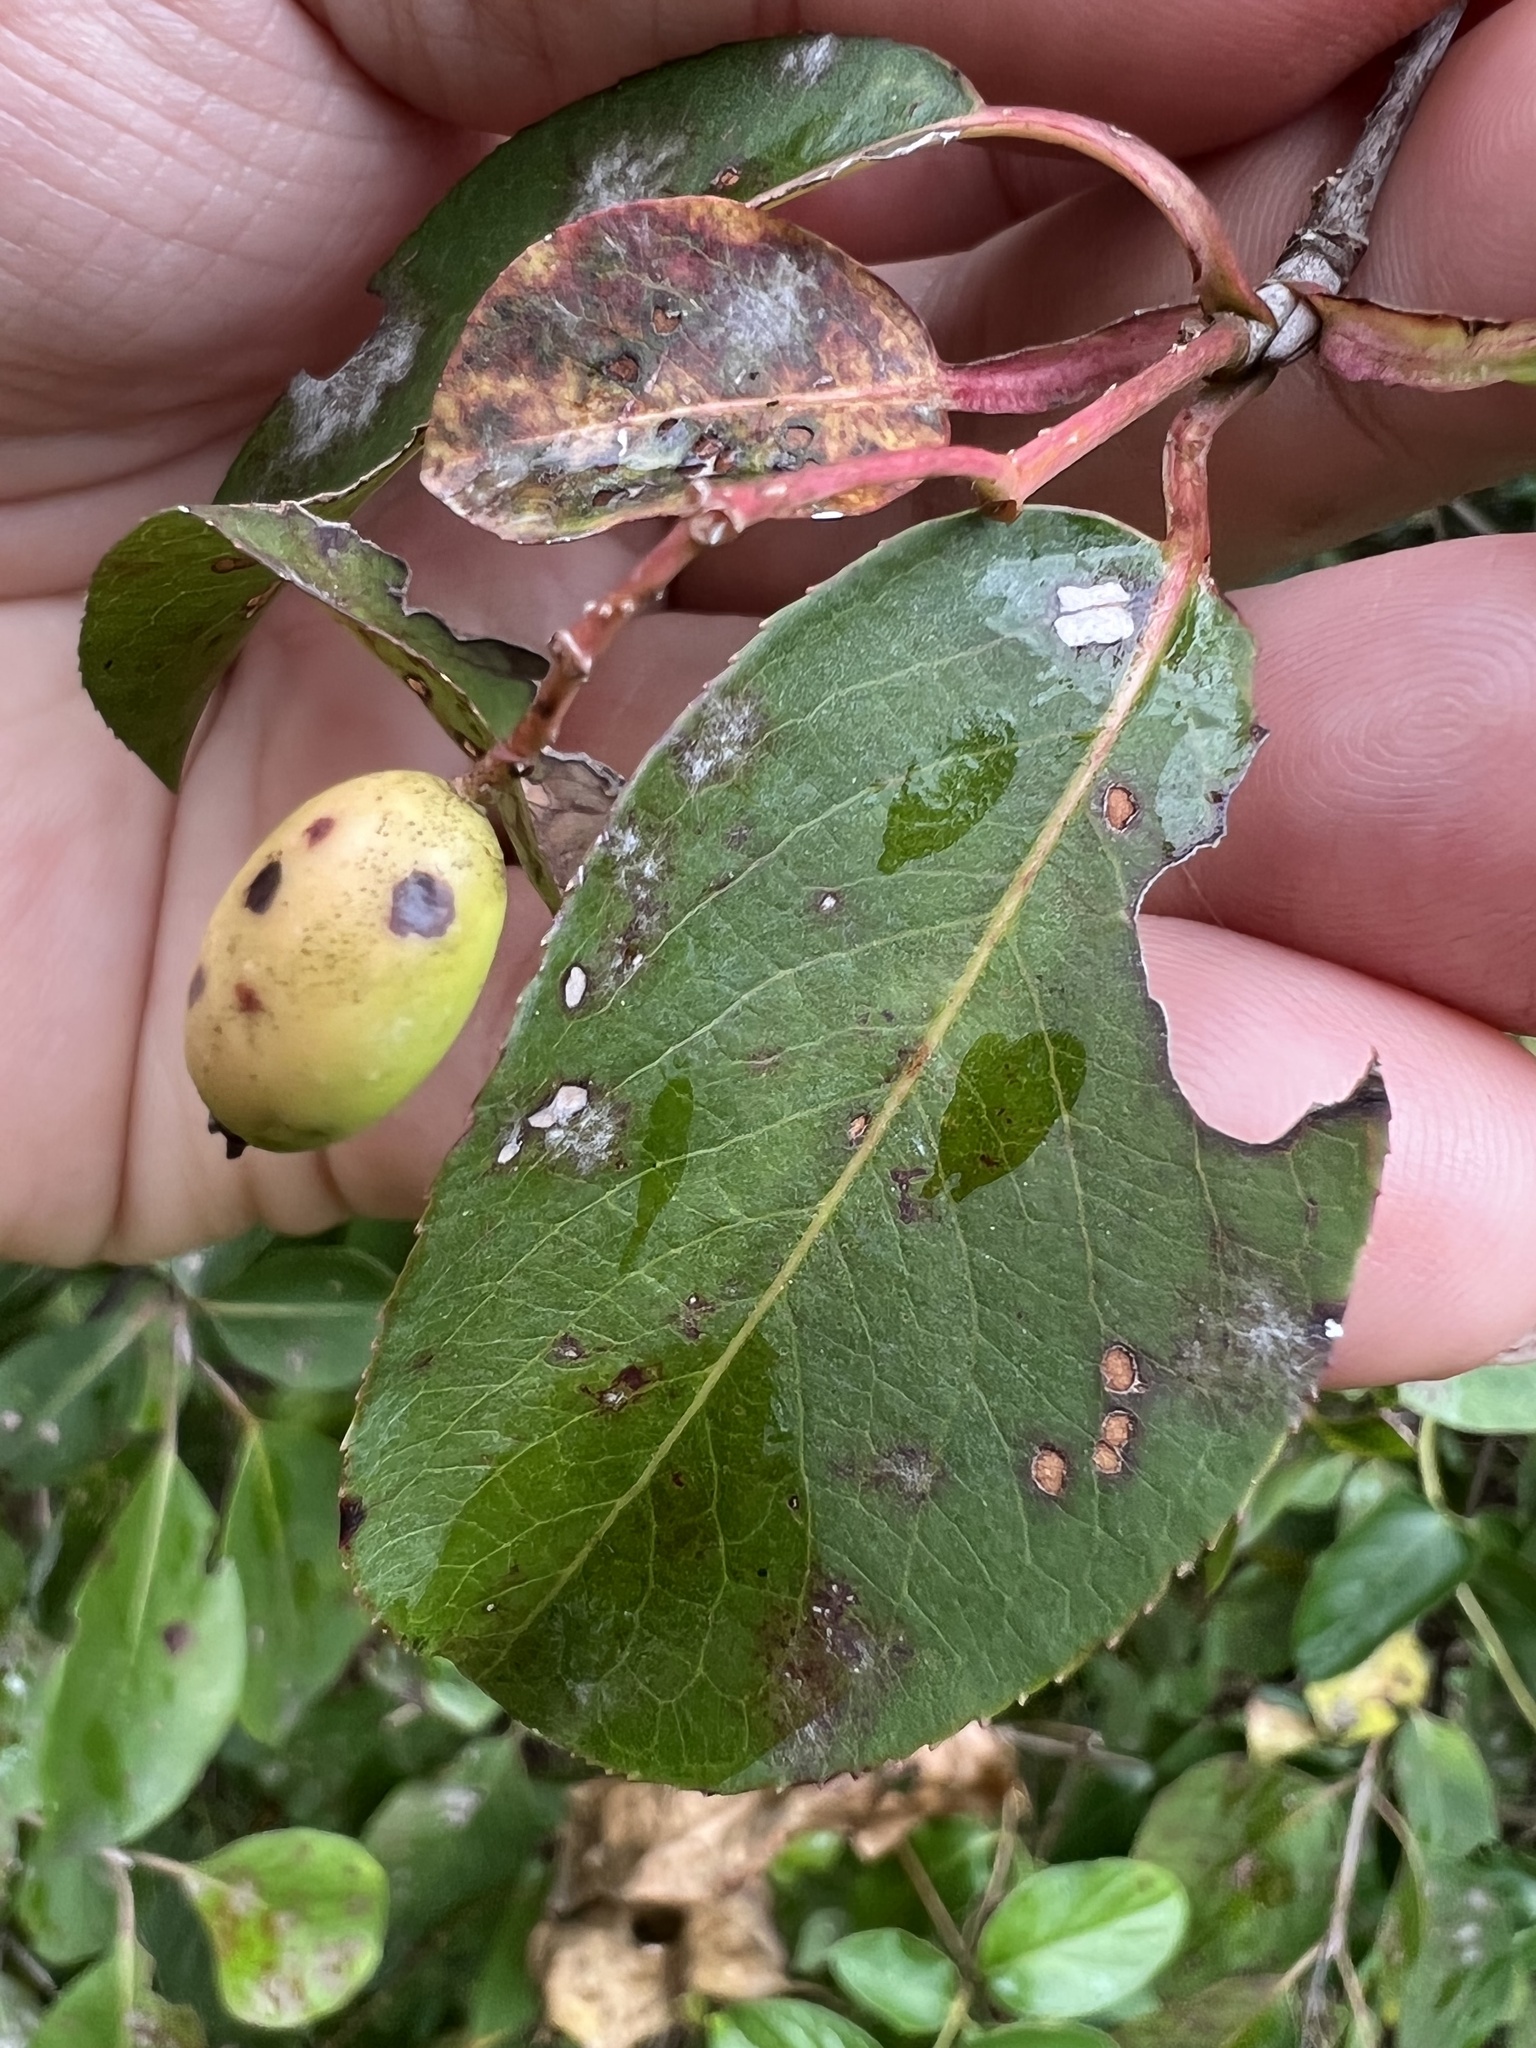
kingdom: Fungi
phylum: Ascomycota
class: Leotiomycetes
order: Helotiales
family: Erysiphaceae
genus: Erysiphe
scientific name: Erysiphe viburni
